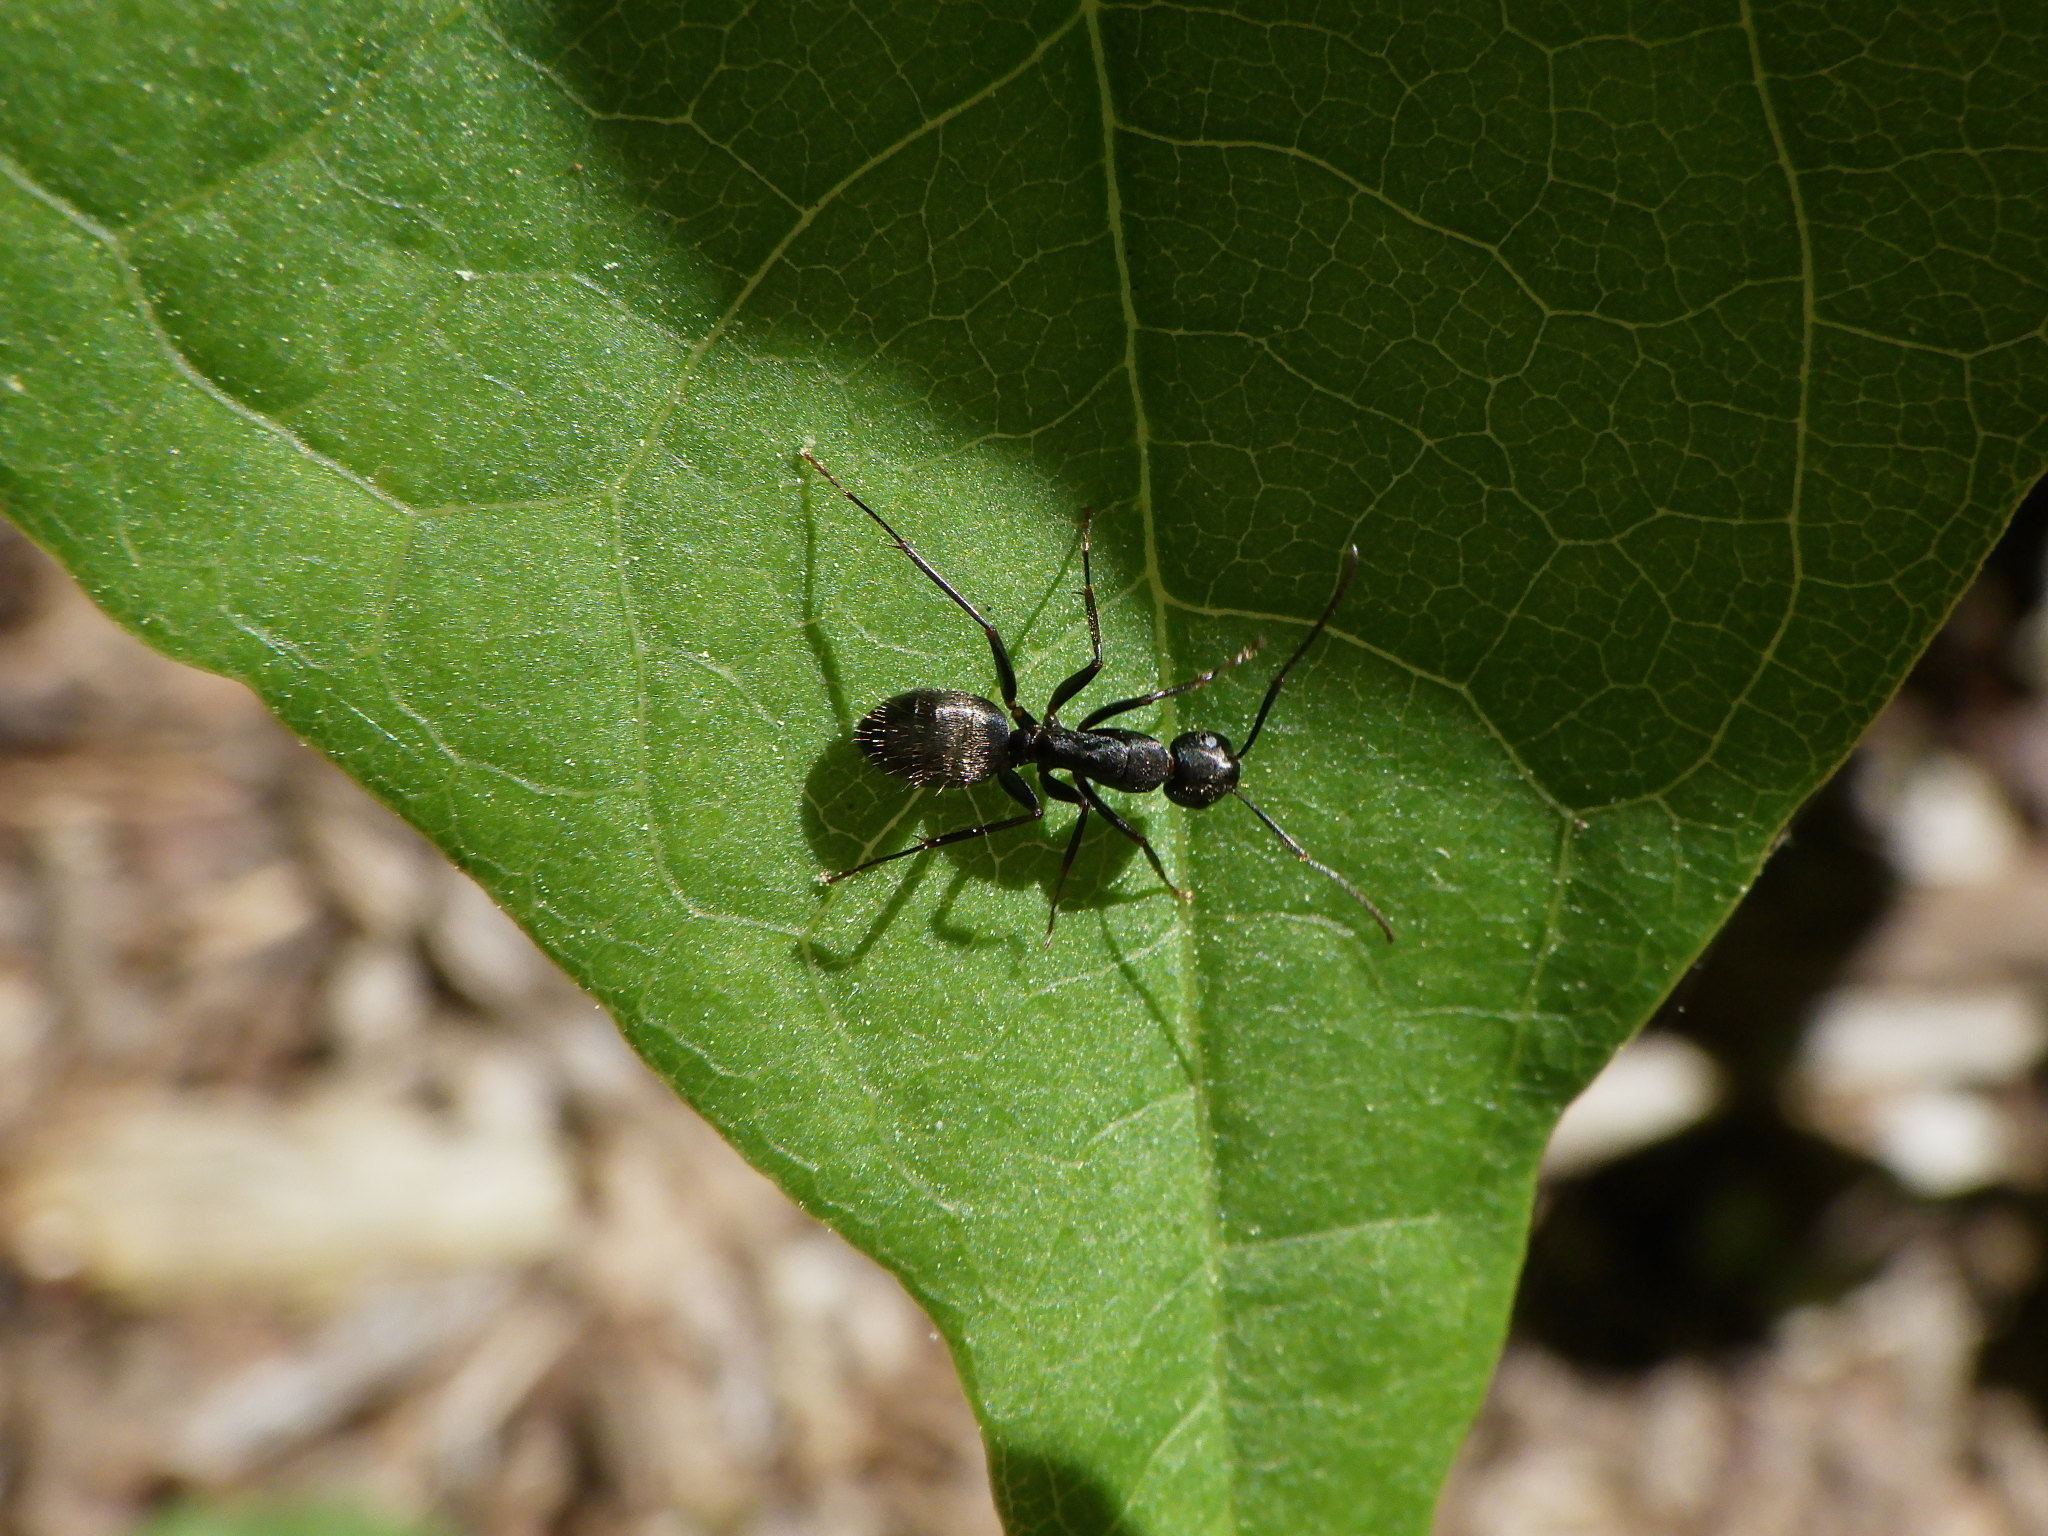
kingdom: Animalia
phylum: Arthropoda
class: Insecta
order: Hymenoptera
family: Formicidae
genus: Camponotus
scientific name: Camponotus pennsylvanicus
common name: Black carpenter ant
